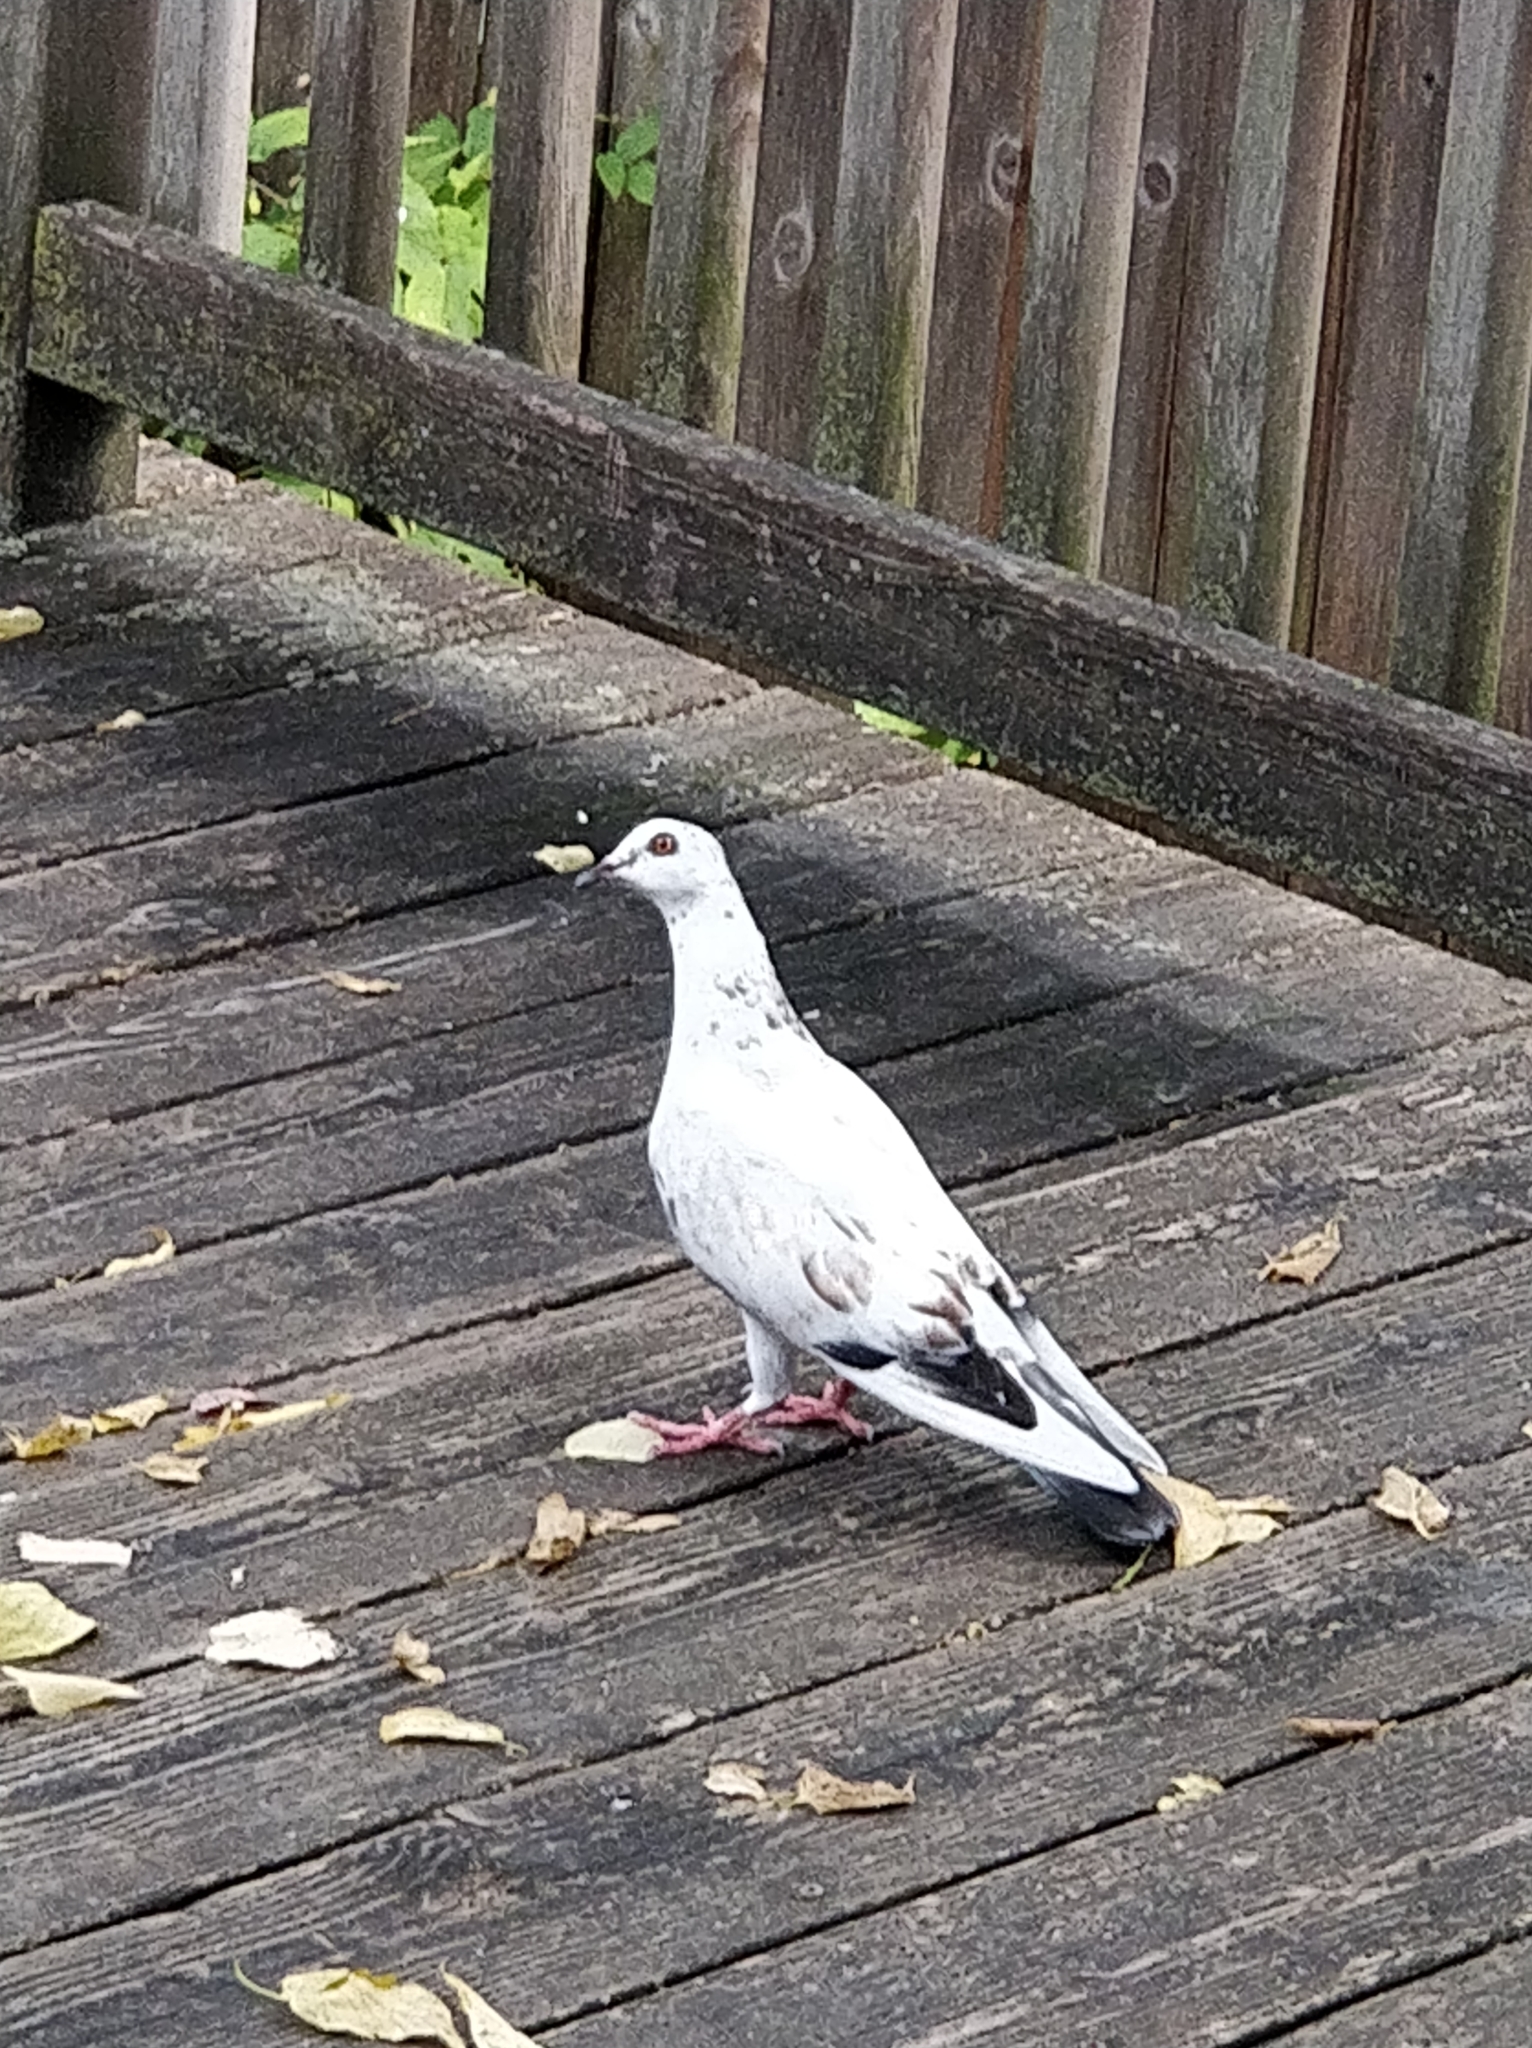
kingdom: Animalia
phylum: Chordata
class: Aves
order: Columbiformes
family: Columbidae
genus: Columba
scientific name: Columba livia
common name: Rock pigeon
